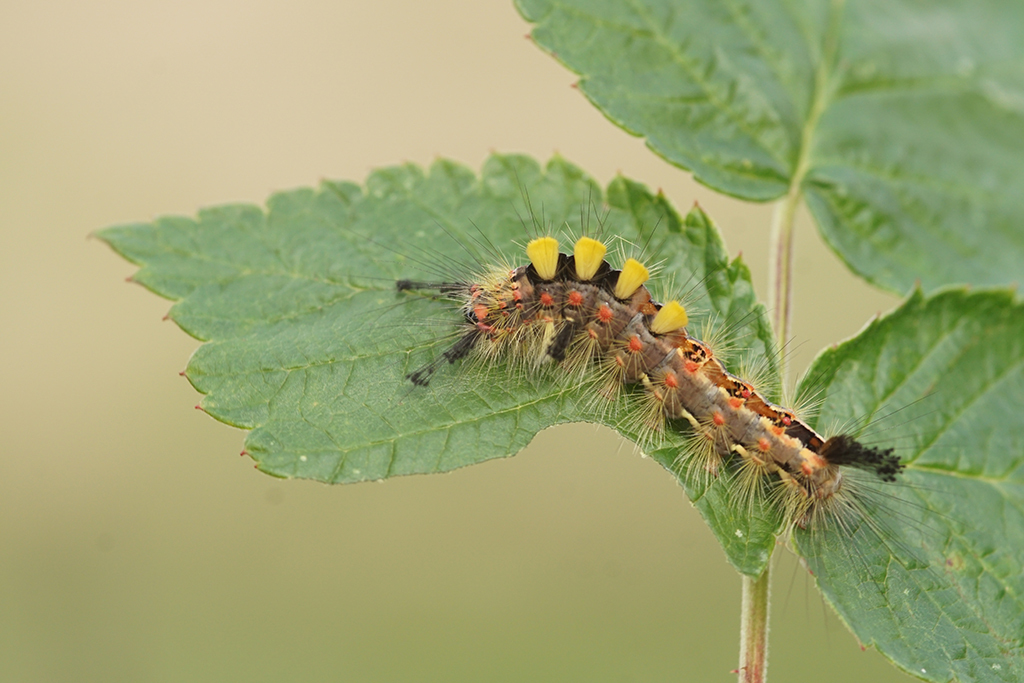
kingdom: Animalia
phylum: Arthropoda
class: Insecta
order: Lepidoptera
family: Erebidae
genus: Orgyia
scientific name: Orgyia antiqua
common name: Vapourer
